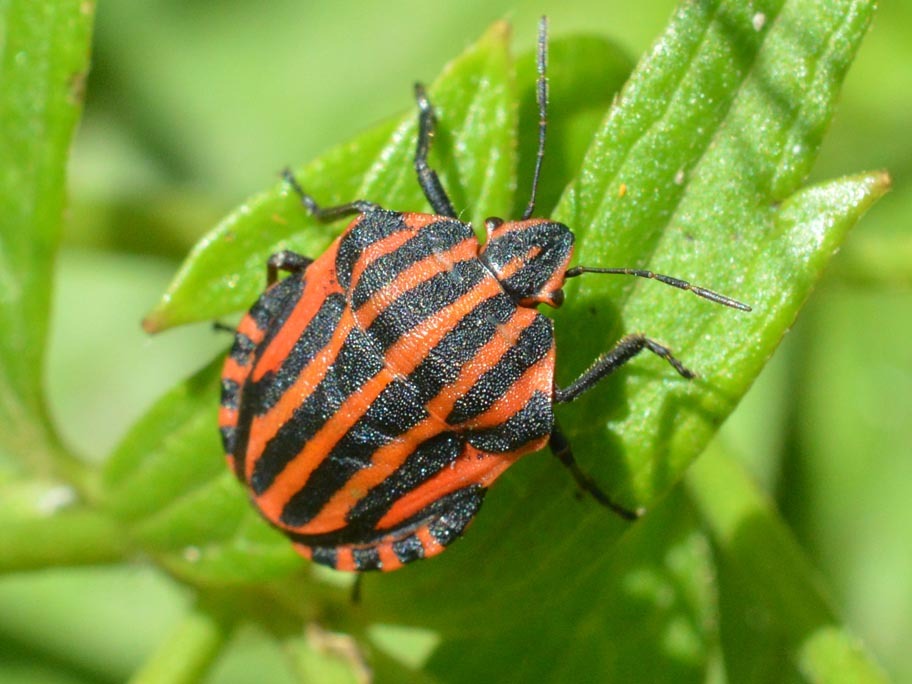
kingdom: Animalia
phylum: Arthropoda
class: Insecta
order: Hemiptera
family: Pentatomidae
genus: Graphosoma
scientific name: Graphosoma italicum
